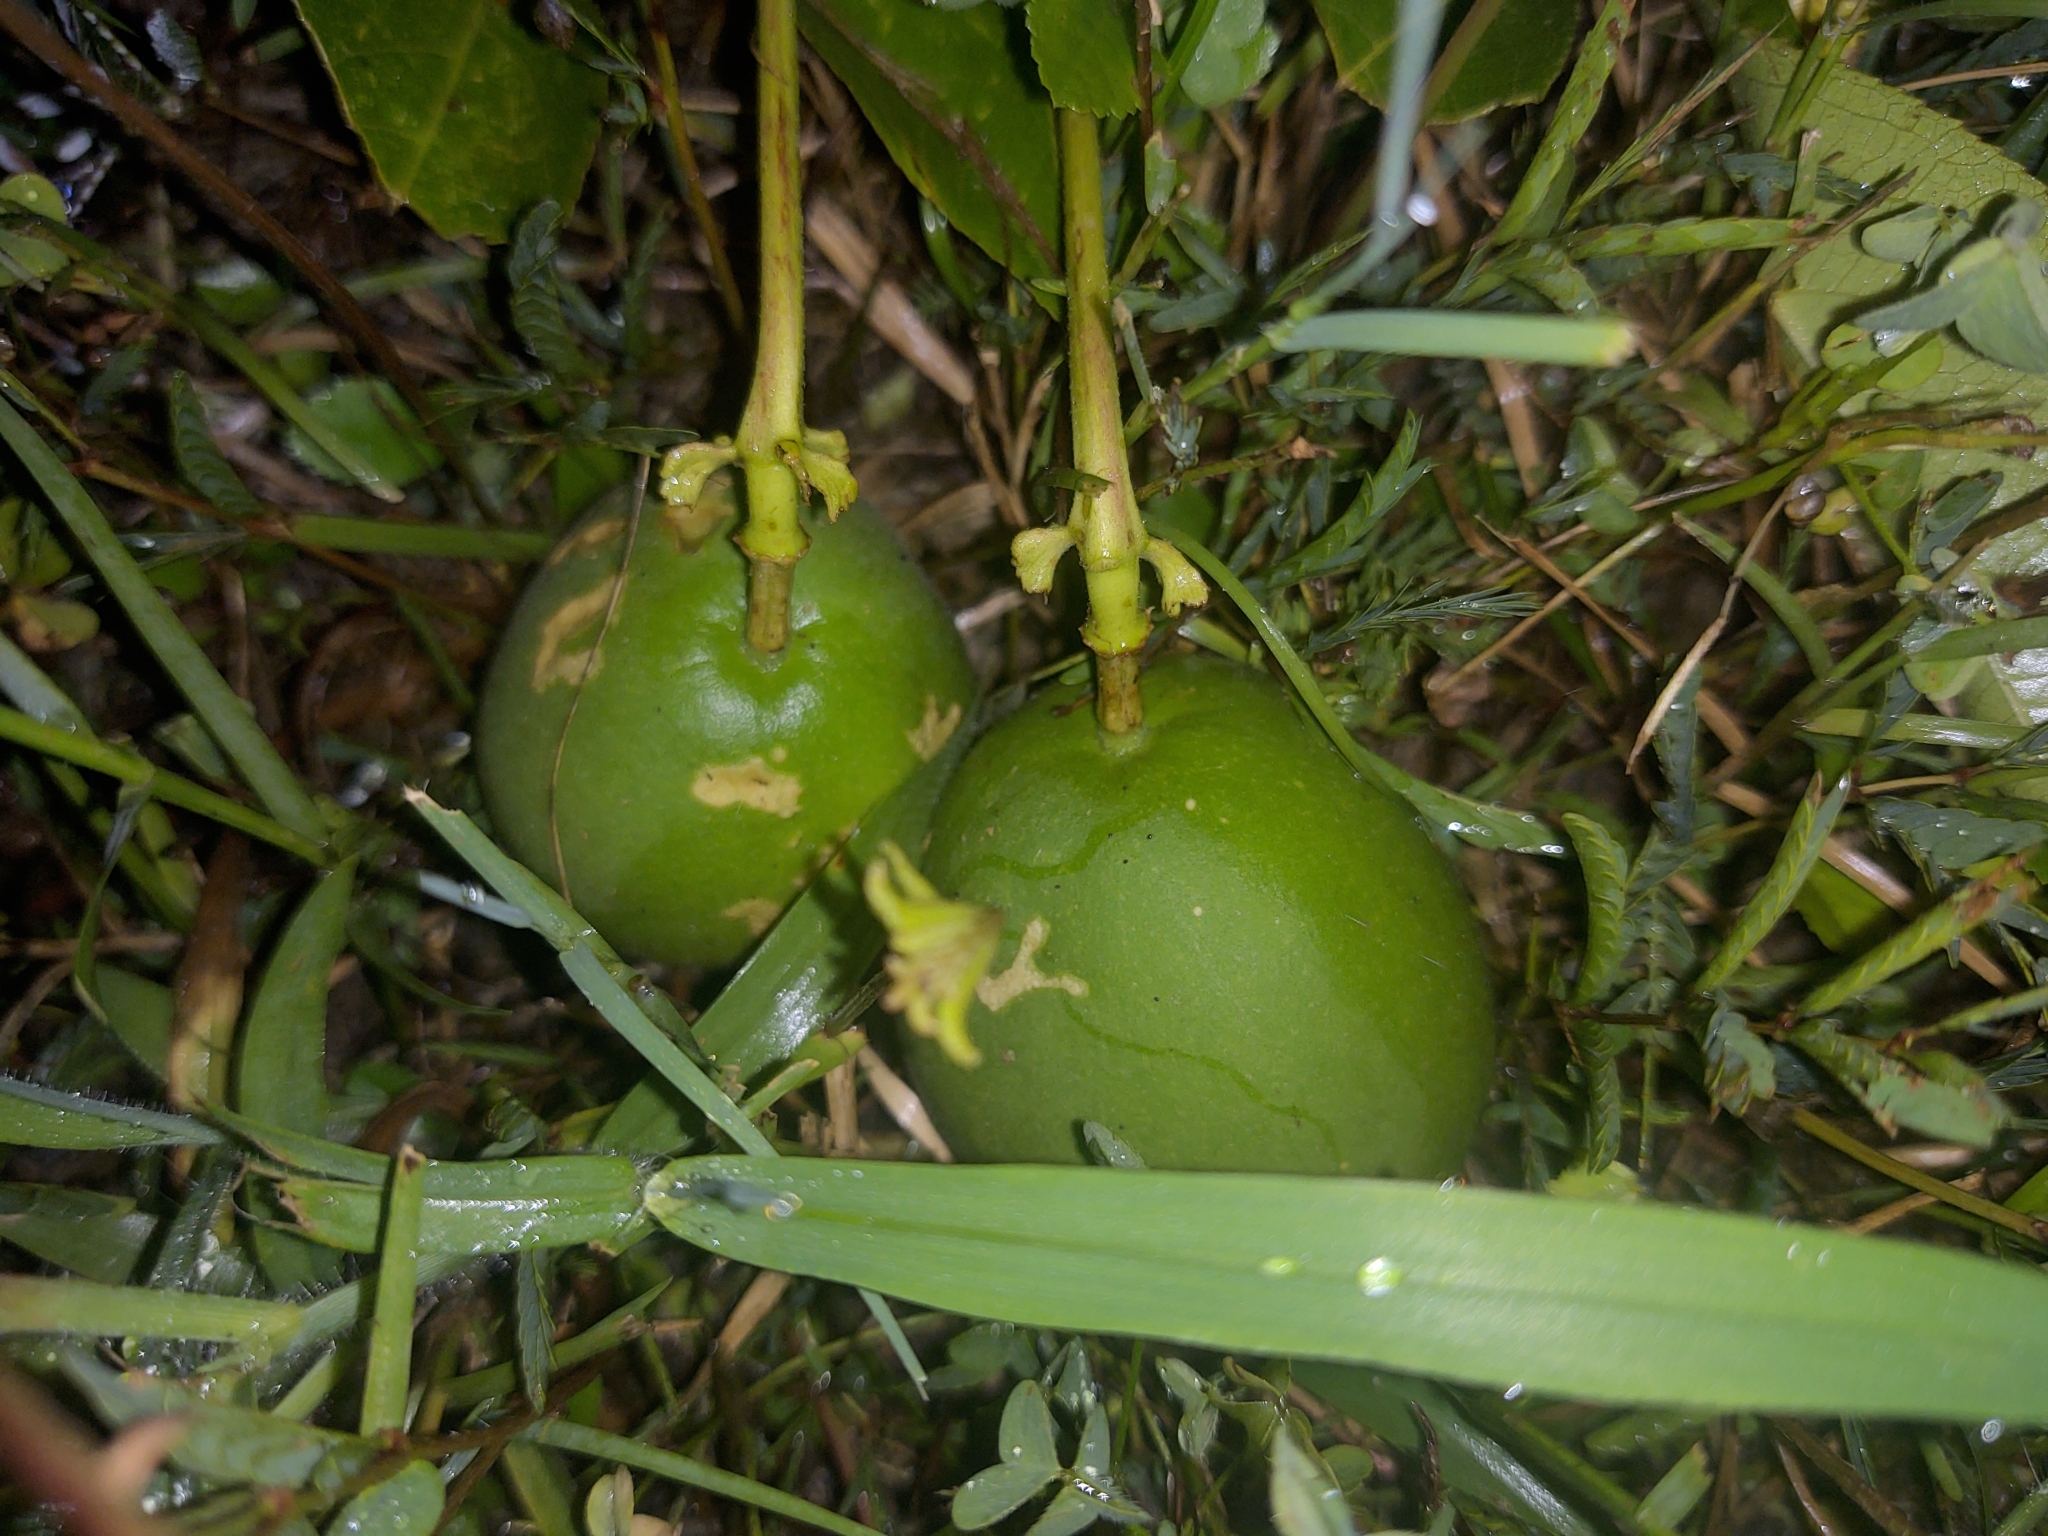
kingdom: Plantae
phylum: Tracheophyta
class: Magnoliopsida
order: Malpighiales
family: Passifloraceae
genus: Passiflora
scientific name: Passiflora incarnata
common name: Apricot-vine
